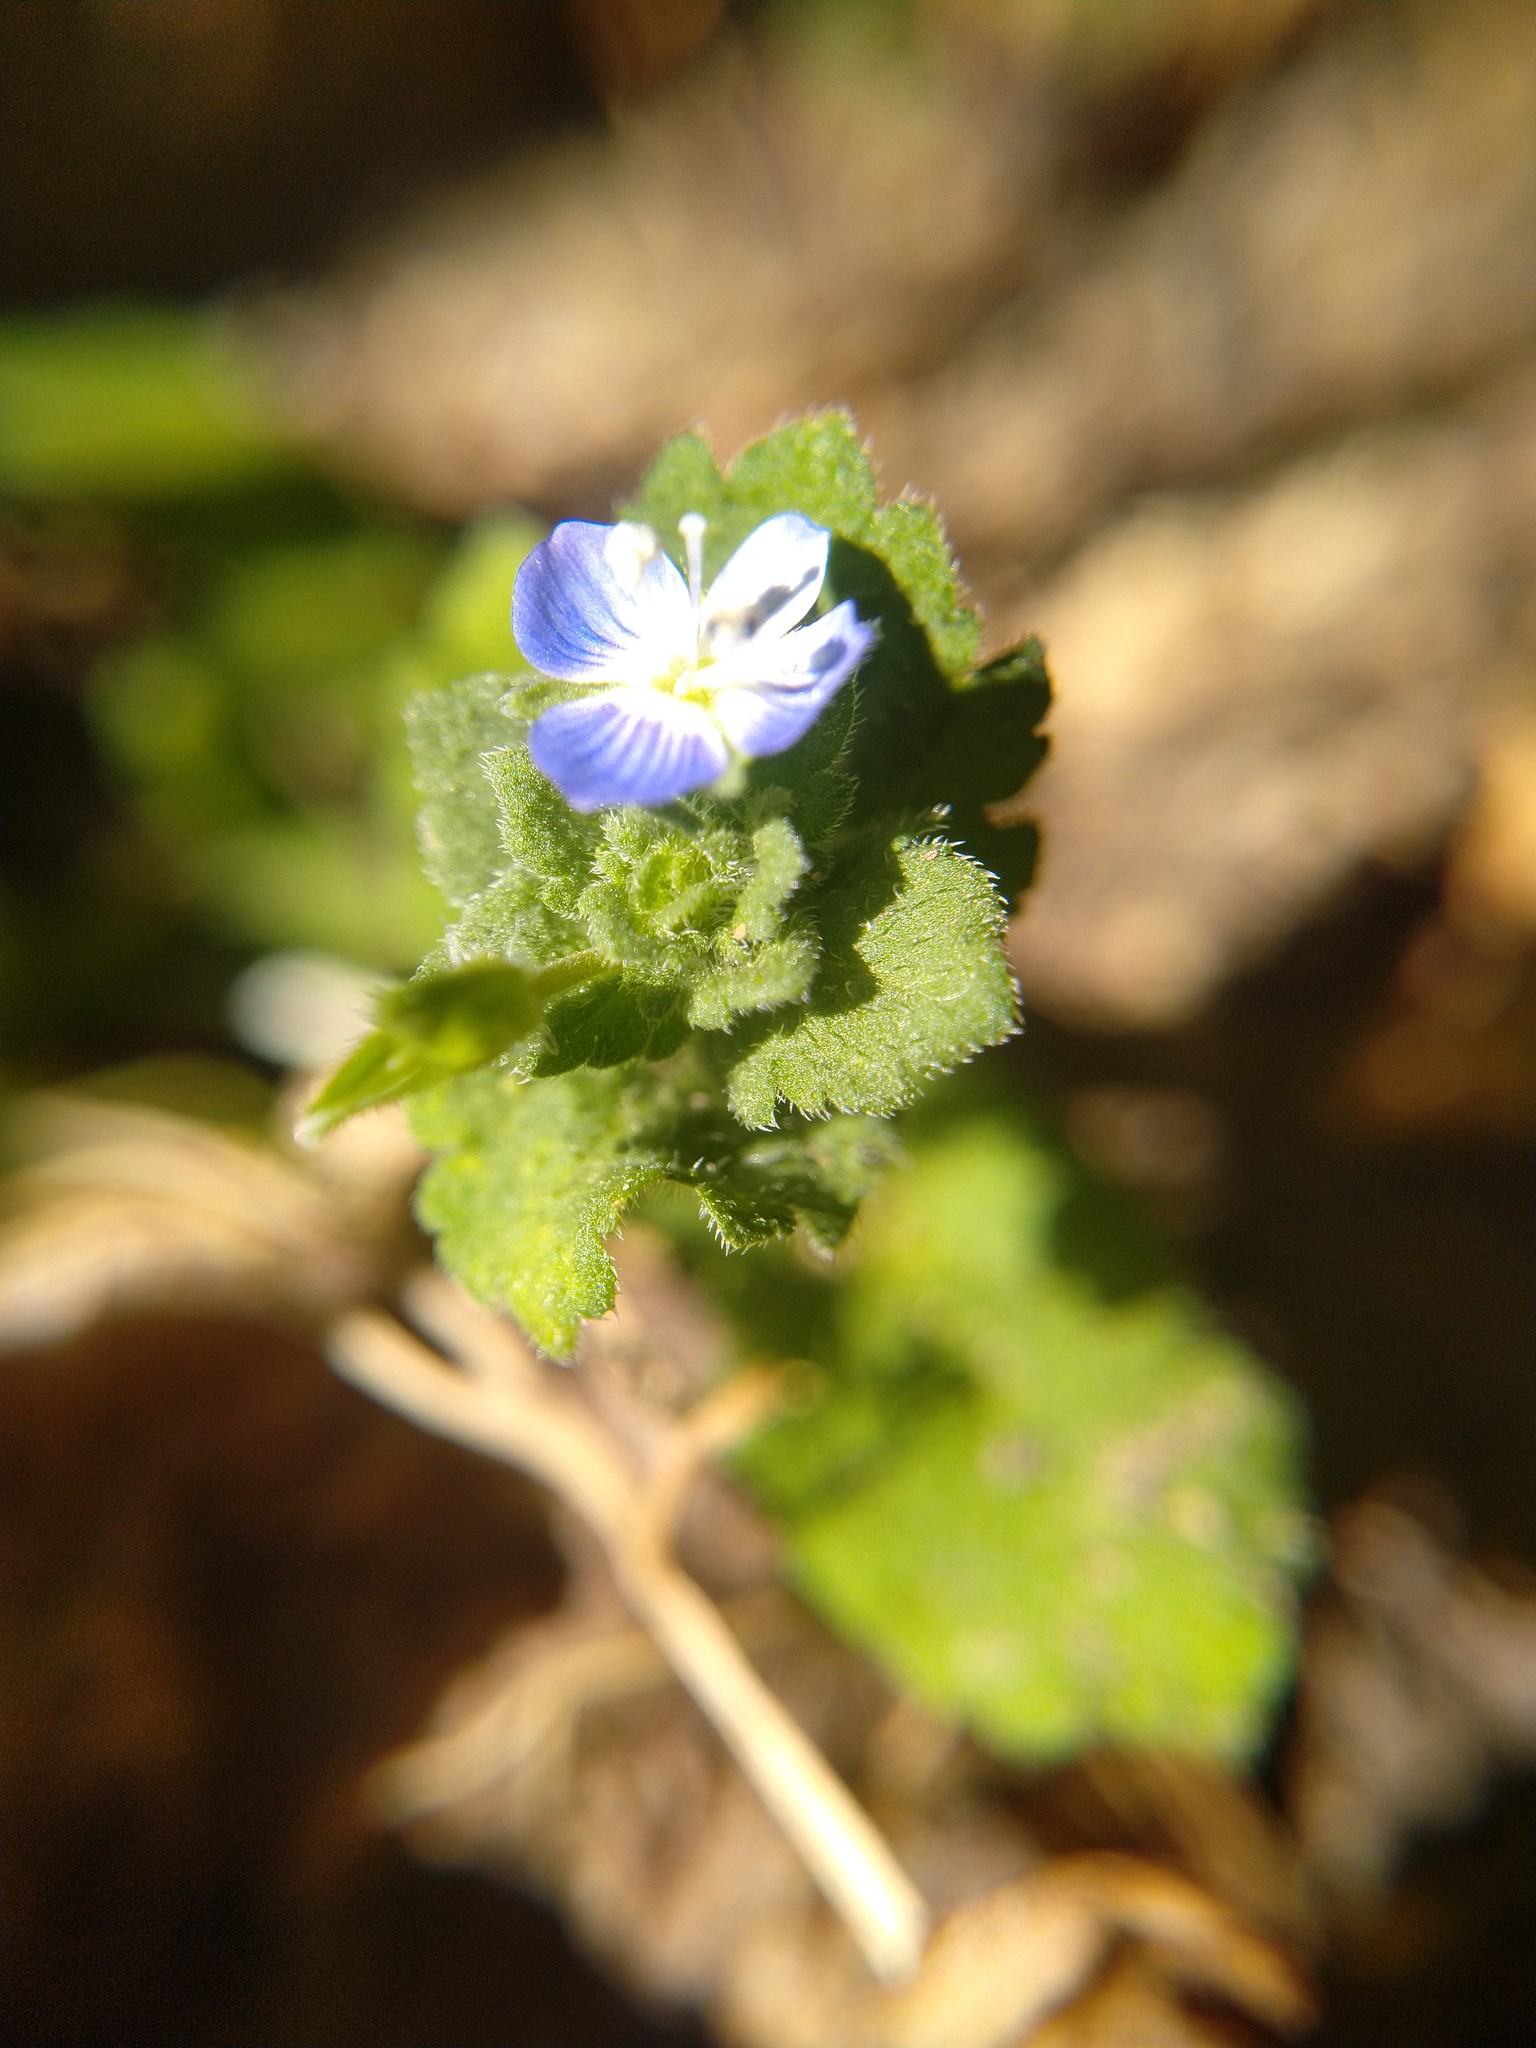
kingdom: Plantae
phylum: Tracheophyta
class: Magnoliopsida
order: Lamiales
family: Plantaginaceae
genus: Veronica
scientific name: Veronica persica
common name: Common field-speedwell
